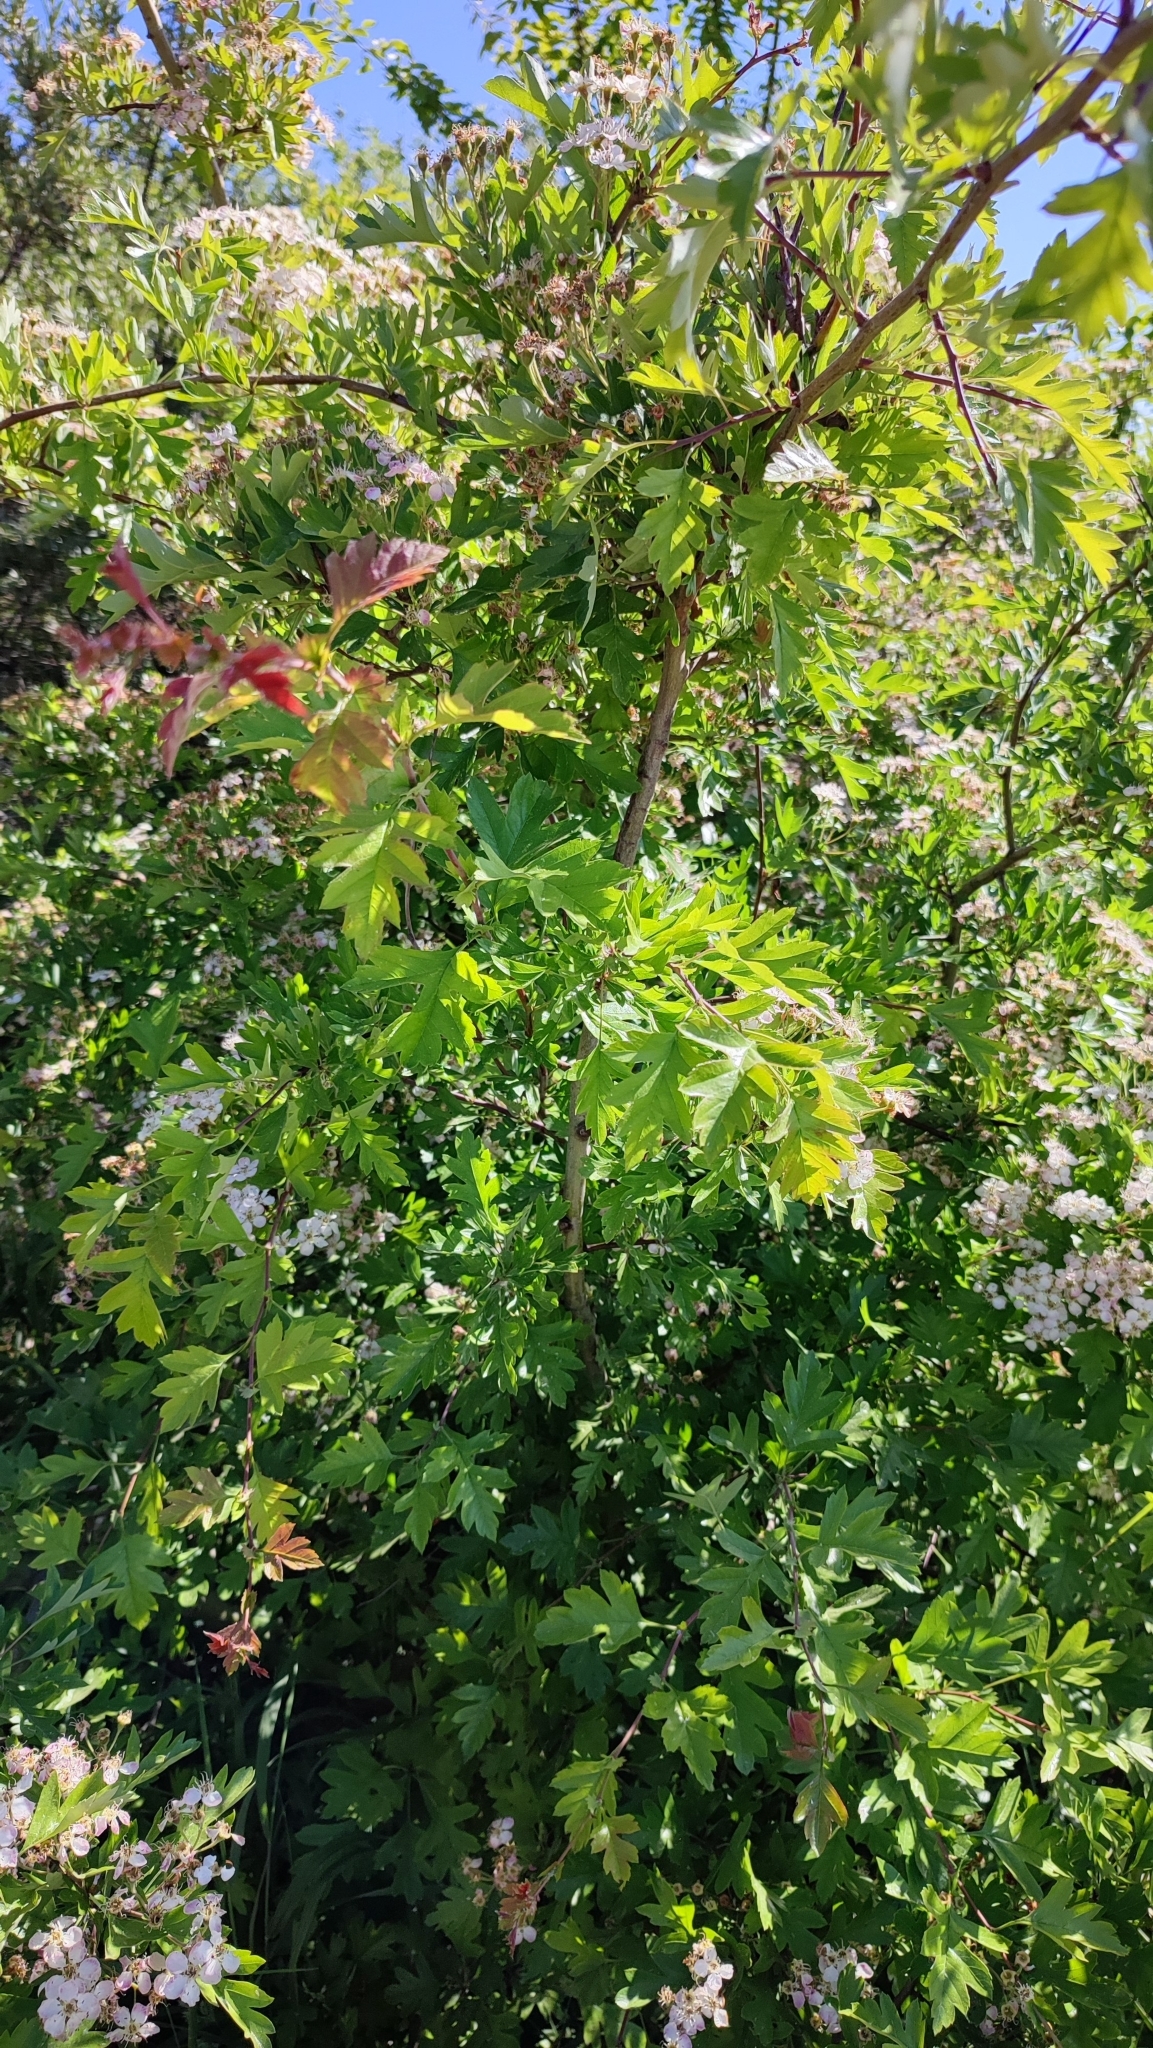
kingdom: Plantae
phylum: Tracheophyta
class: Magnoliopsida
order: Rosales
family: Rosaceae
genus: Crataegus
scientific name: Crataegus monogyna
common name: Hawthorn
